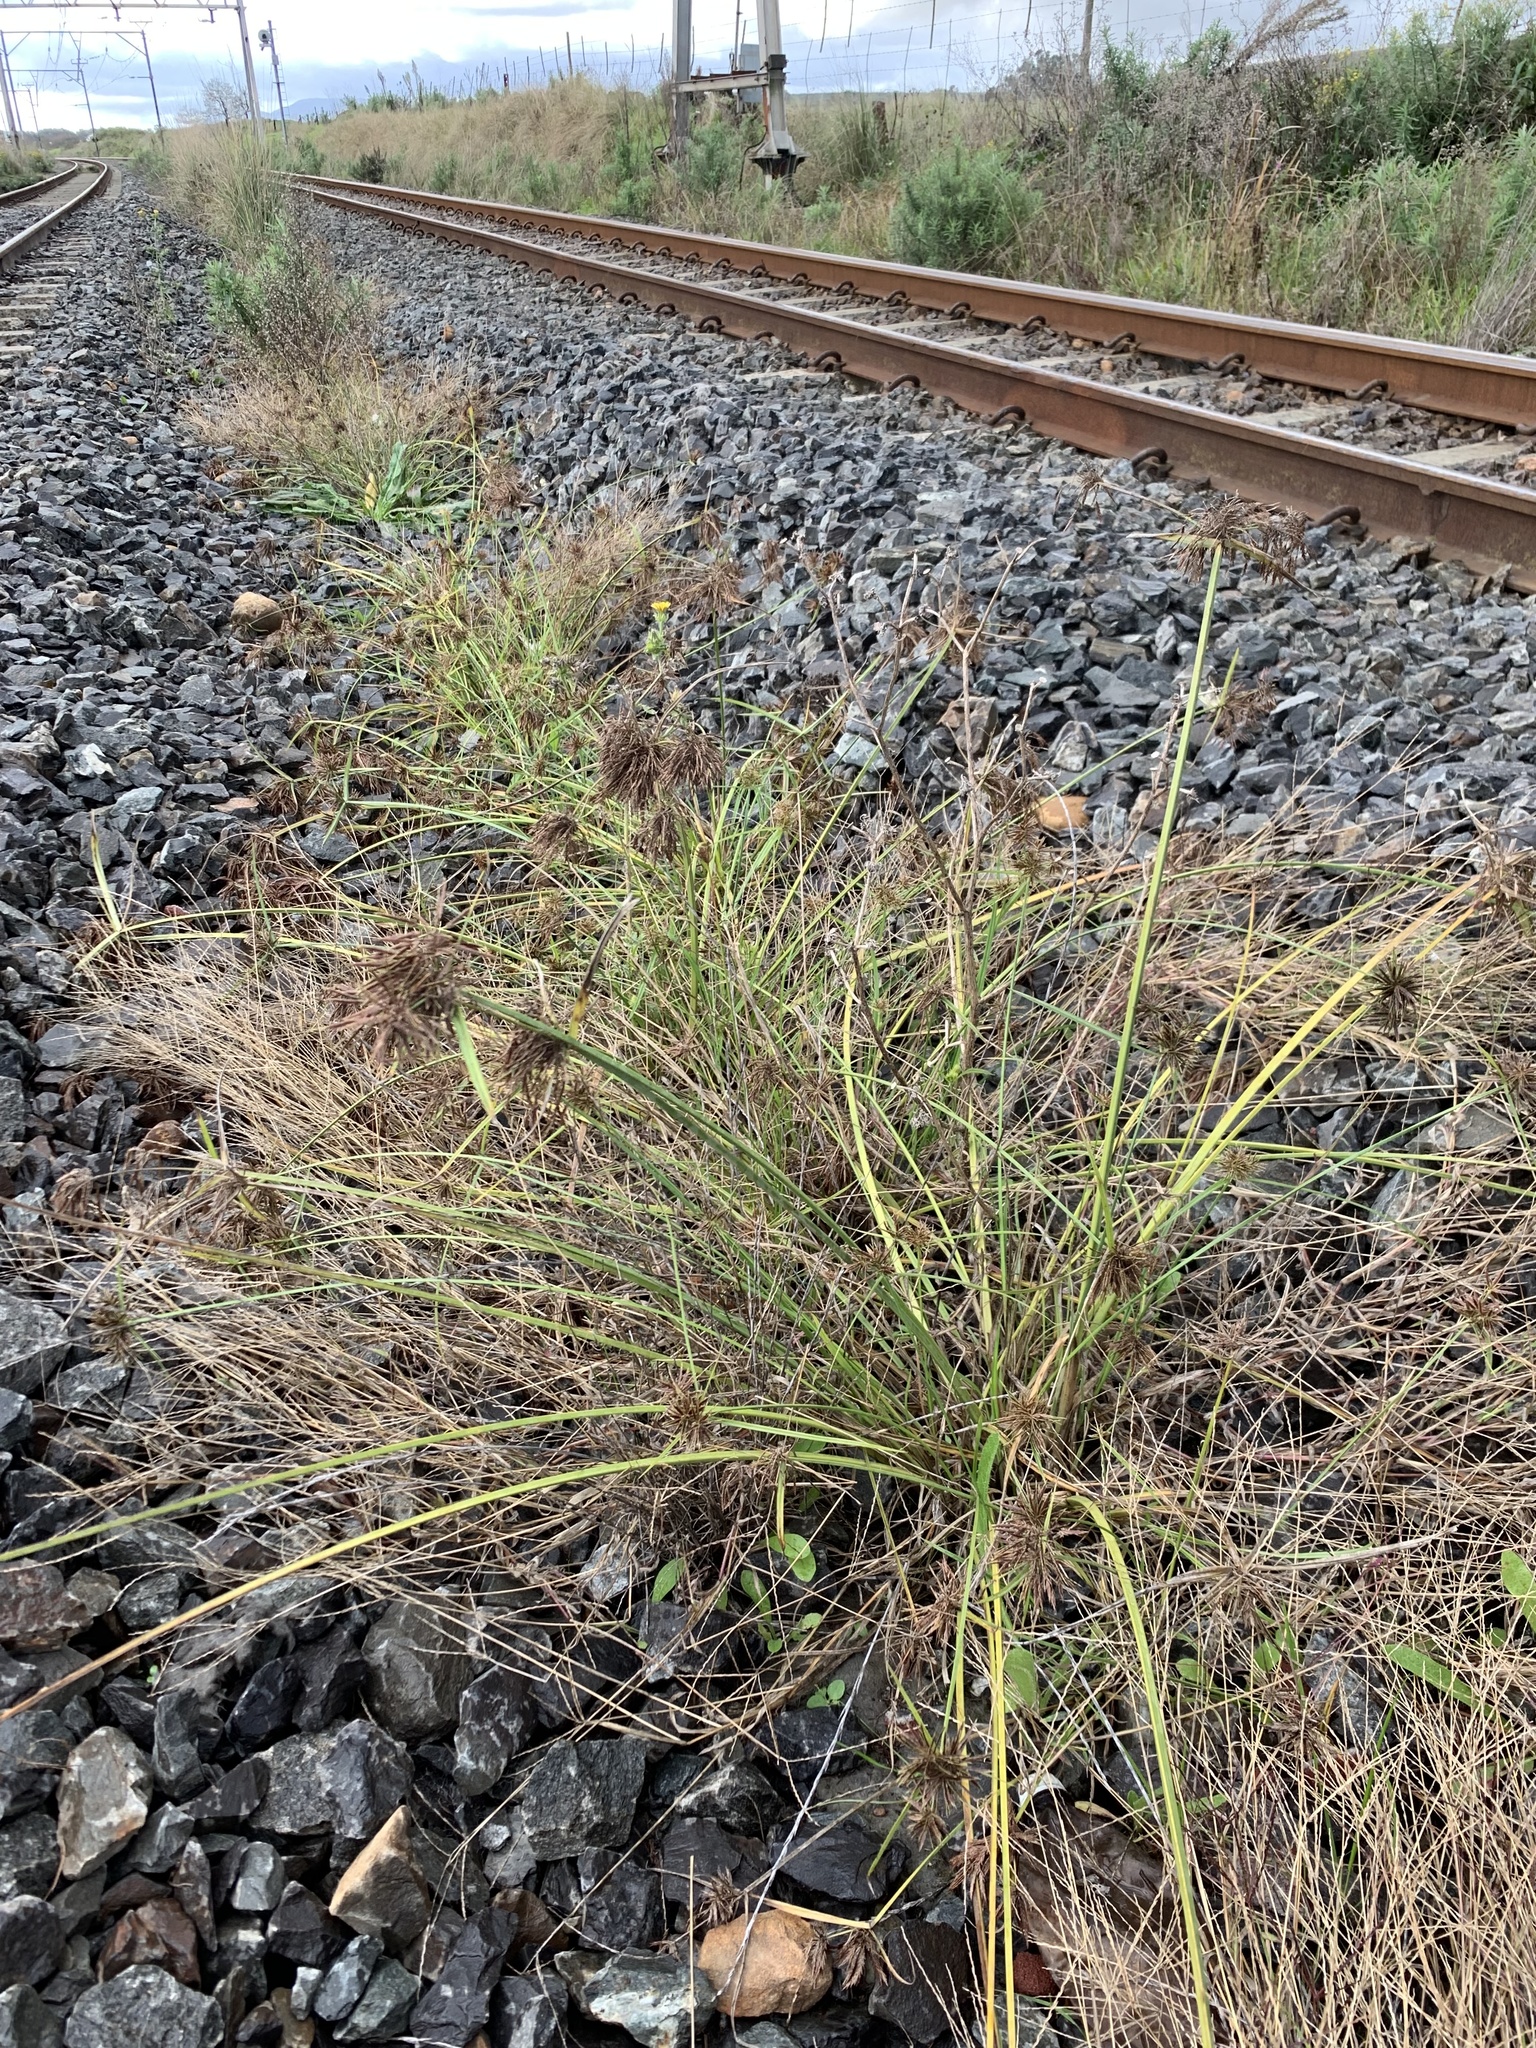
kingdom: Plantae
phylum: Tracheophyta
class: Liliopsida
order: Poales
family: Cyperaceae
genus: Cyperus
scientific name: Cyperus congestus
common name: Dense flat sedge
